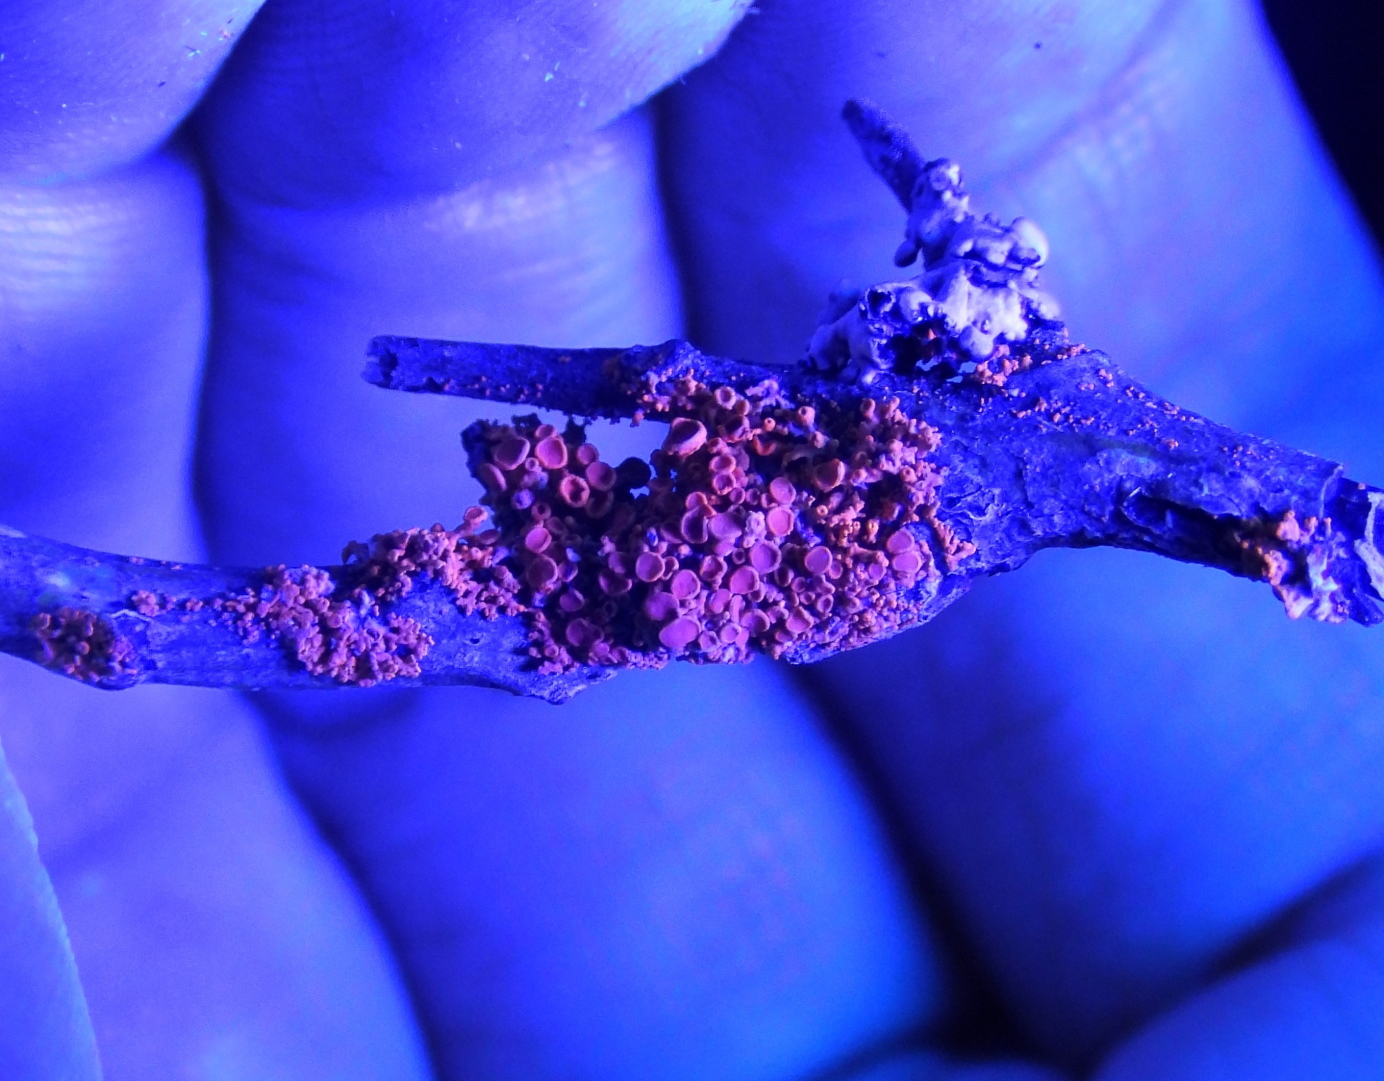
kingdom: Fungi
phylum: Ascomycota
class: Lecanoromycetes
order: Teloschistales
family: Teloschistaceae
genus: Polycauliona
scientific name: Polycauliona polycarpa
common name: Pin-cushion sunburst lichen
